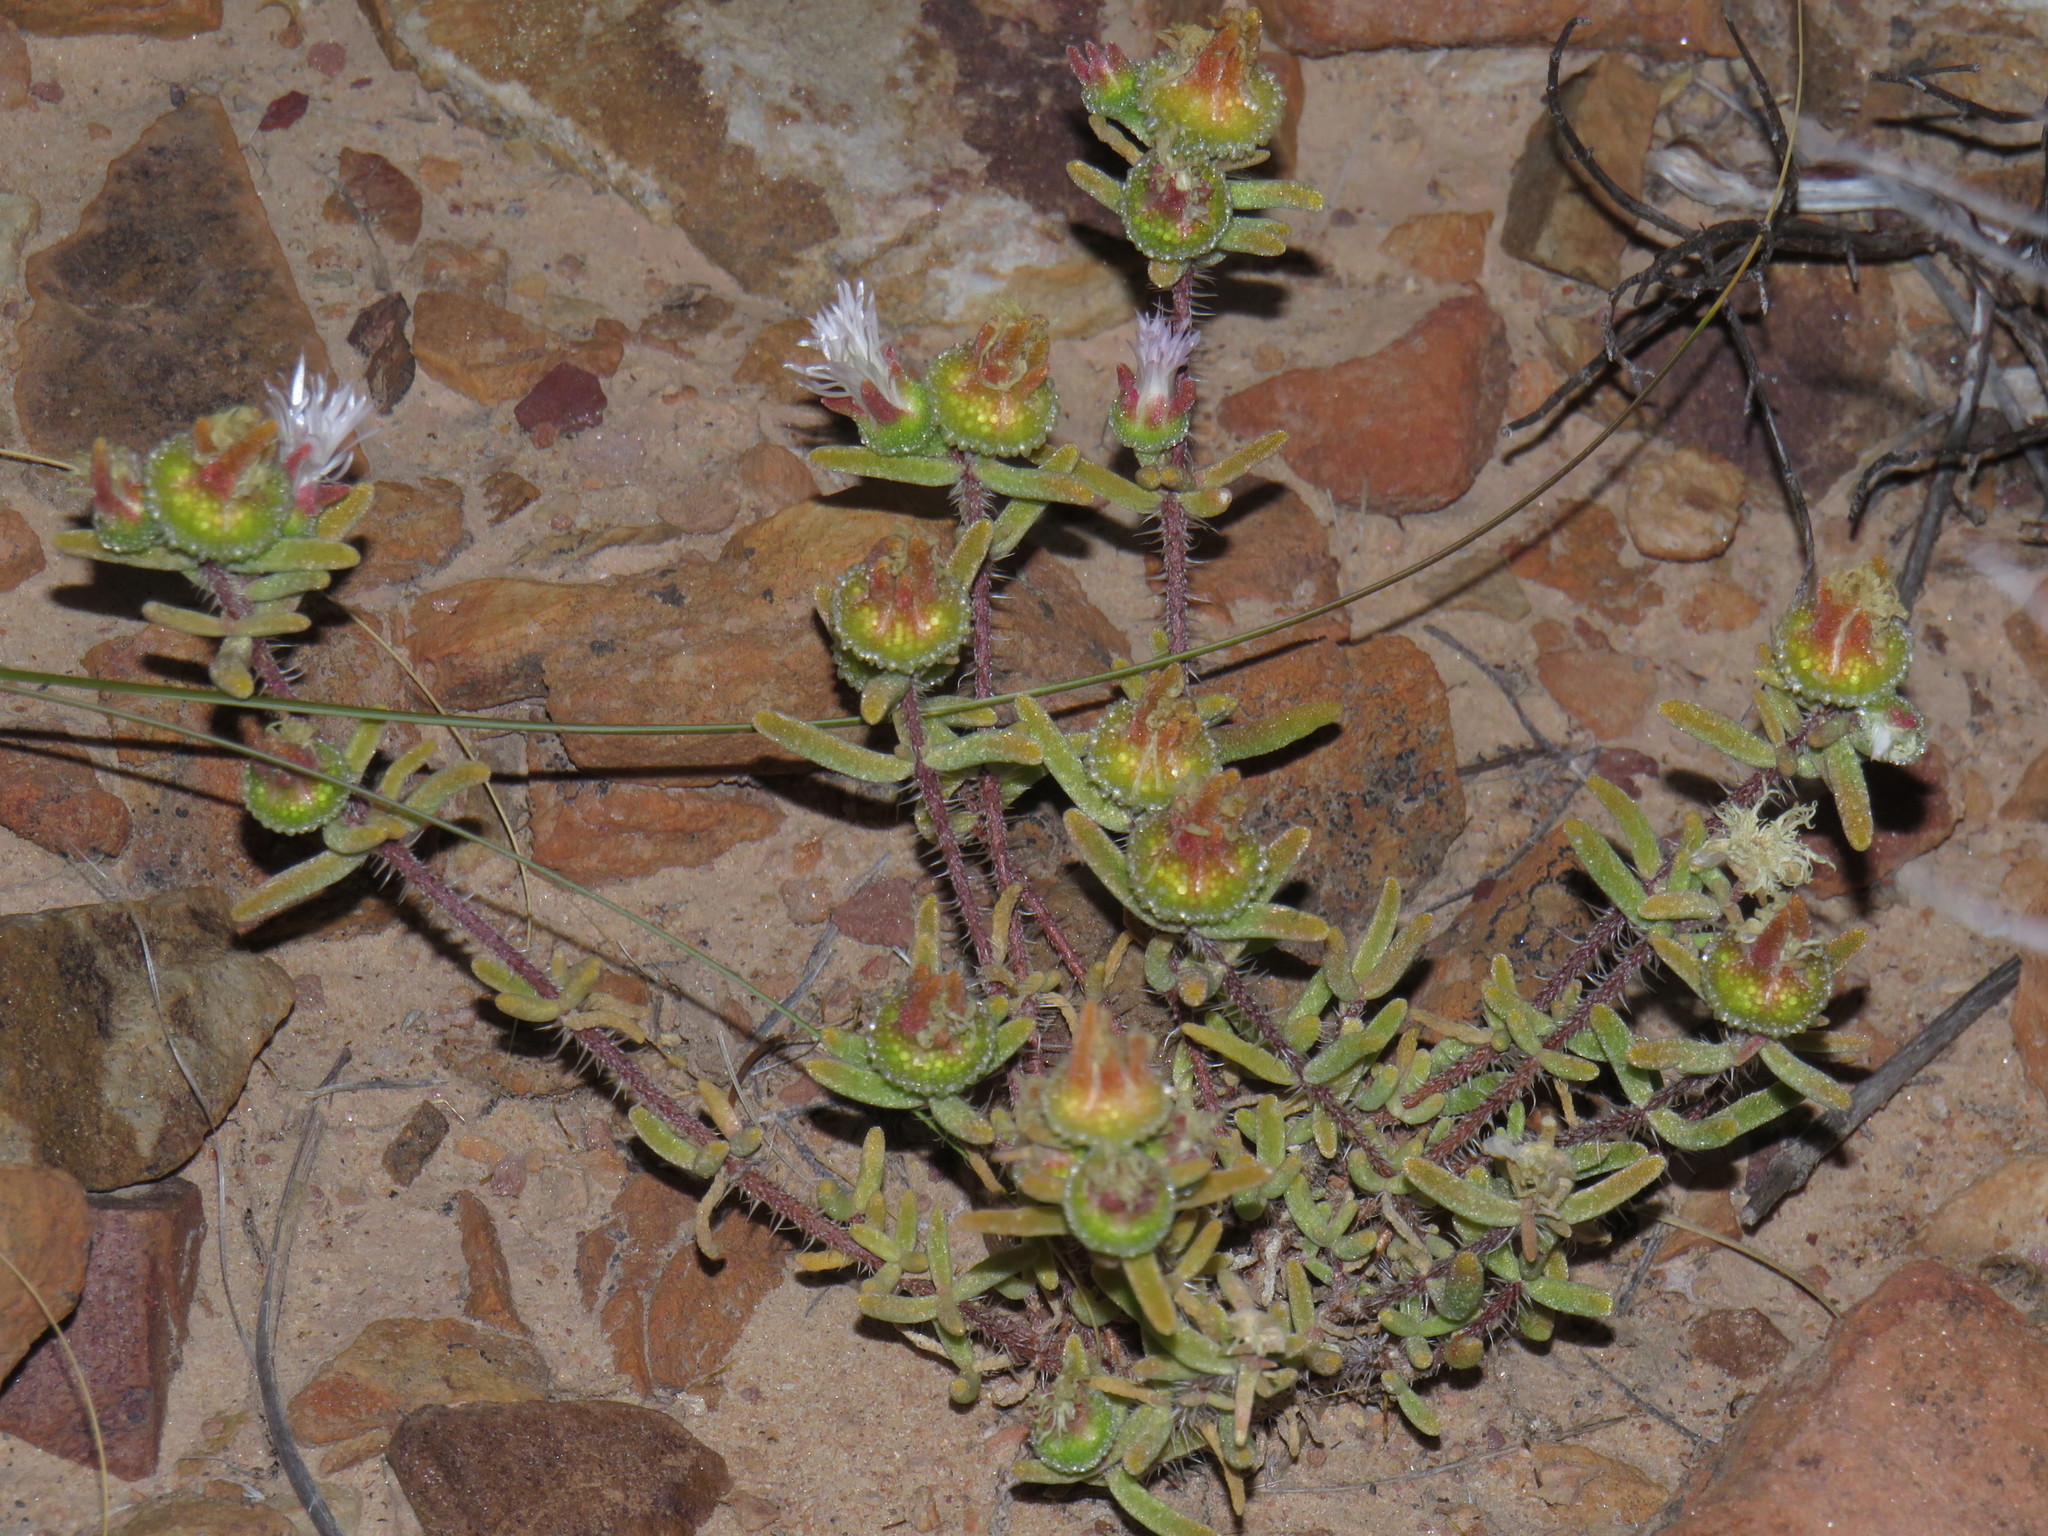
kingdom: Plantae
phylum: Tracheophyta
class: Magnoliopsida
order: Caryophyllales
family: Aizoaceae
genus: Drosanthemum
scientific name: Drosanthemum calycinum
